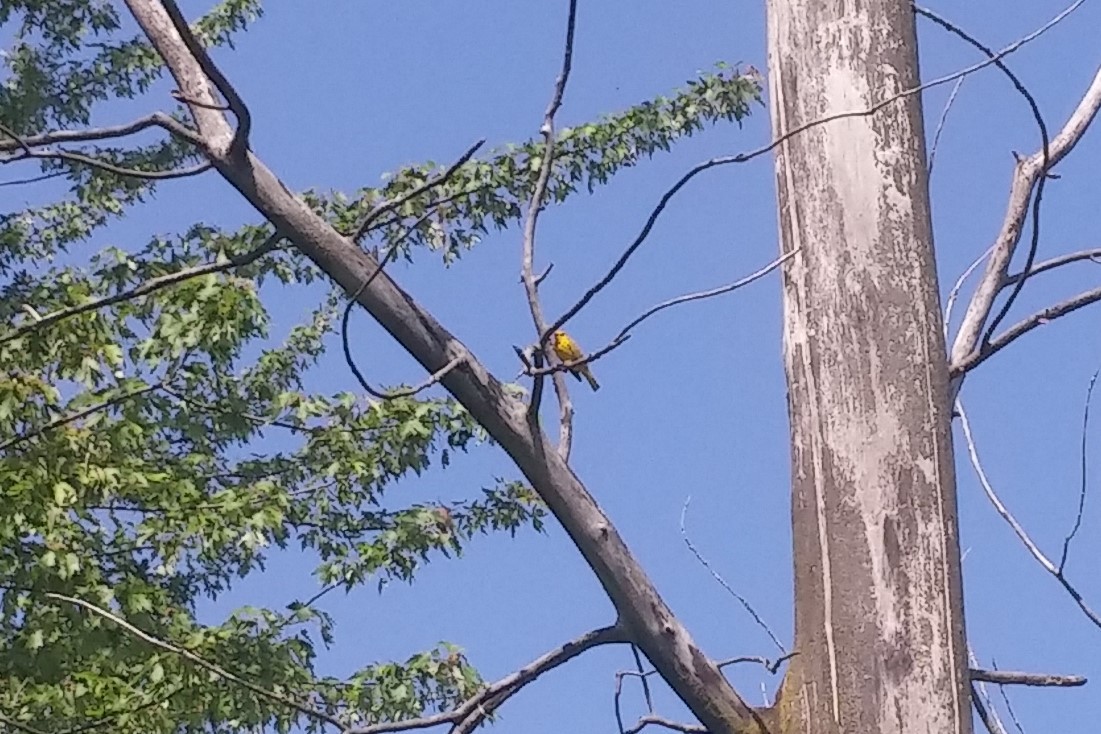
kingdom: Animalia
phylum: Chordata
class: Aves
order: Passeriformes
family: Parulidae
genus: Setophaga
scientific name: Setophaga petechia
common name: Yellow warbler
